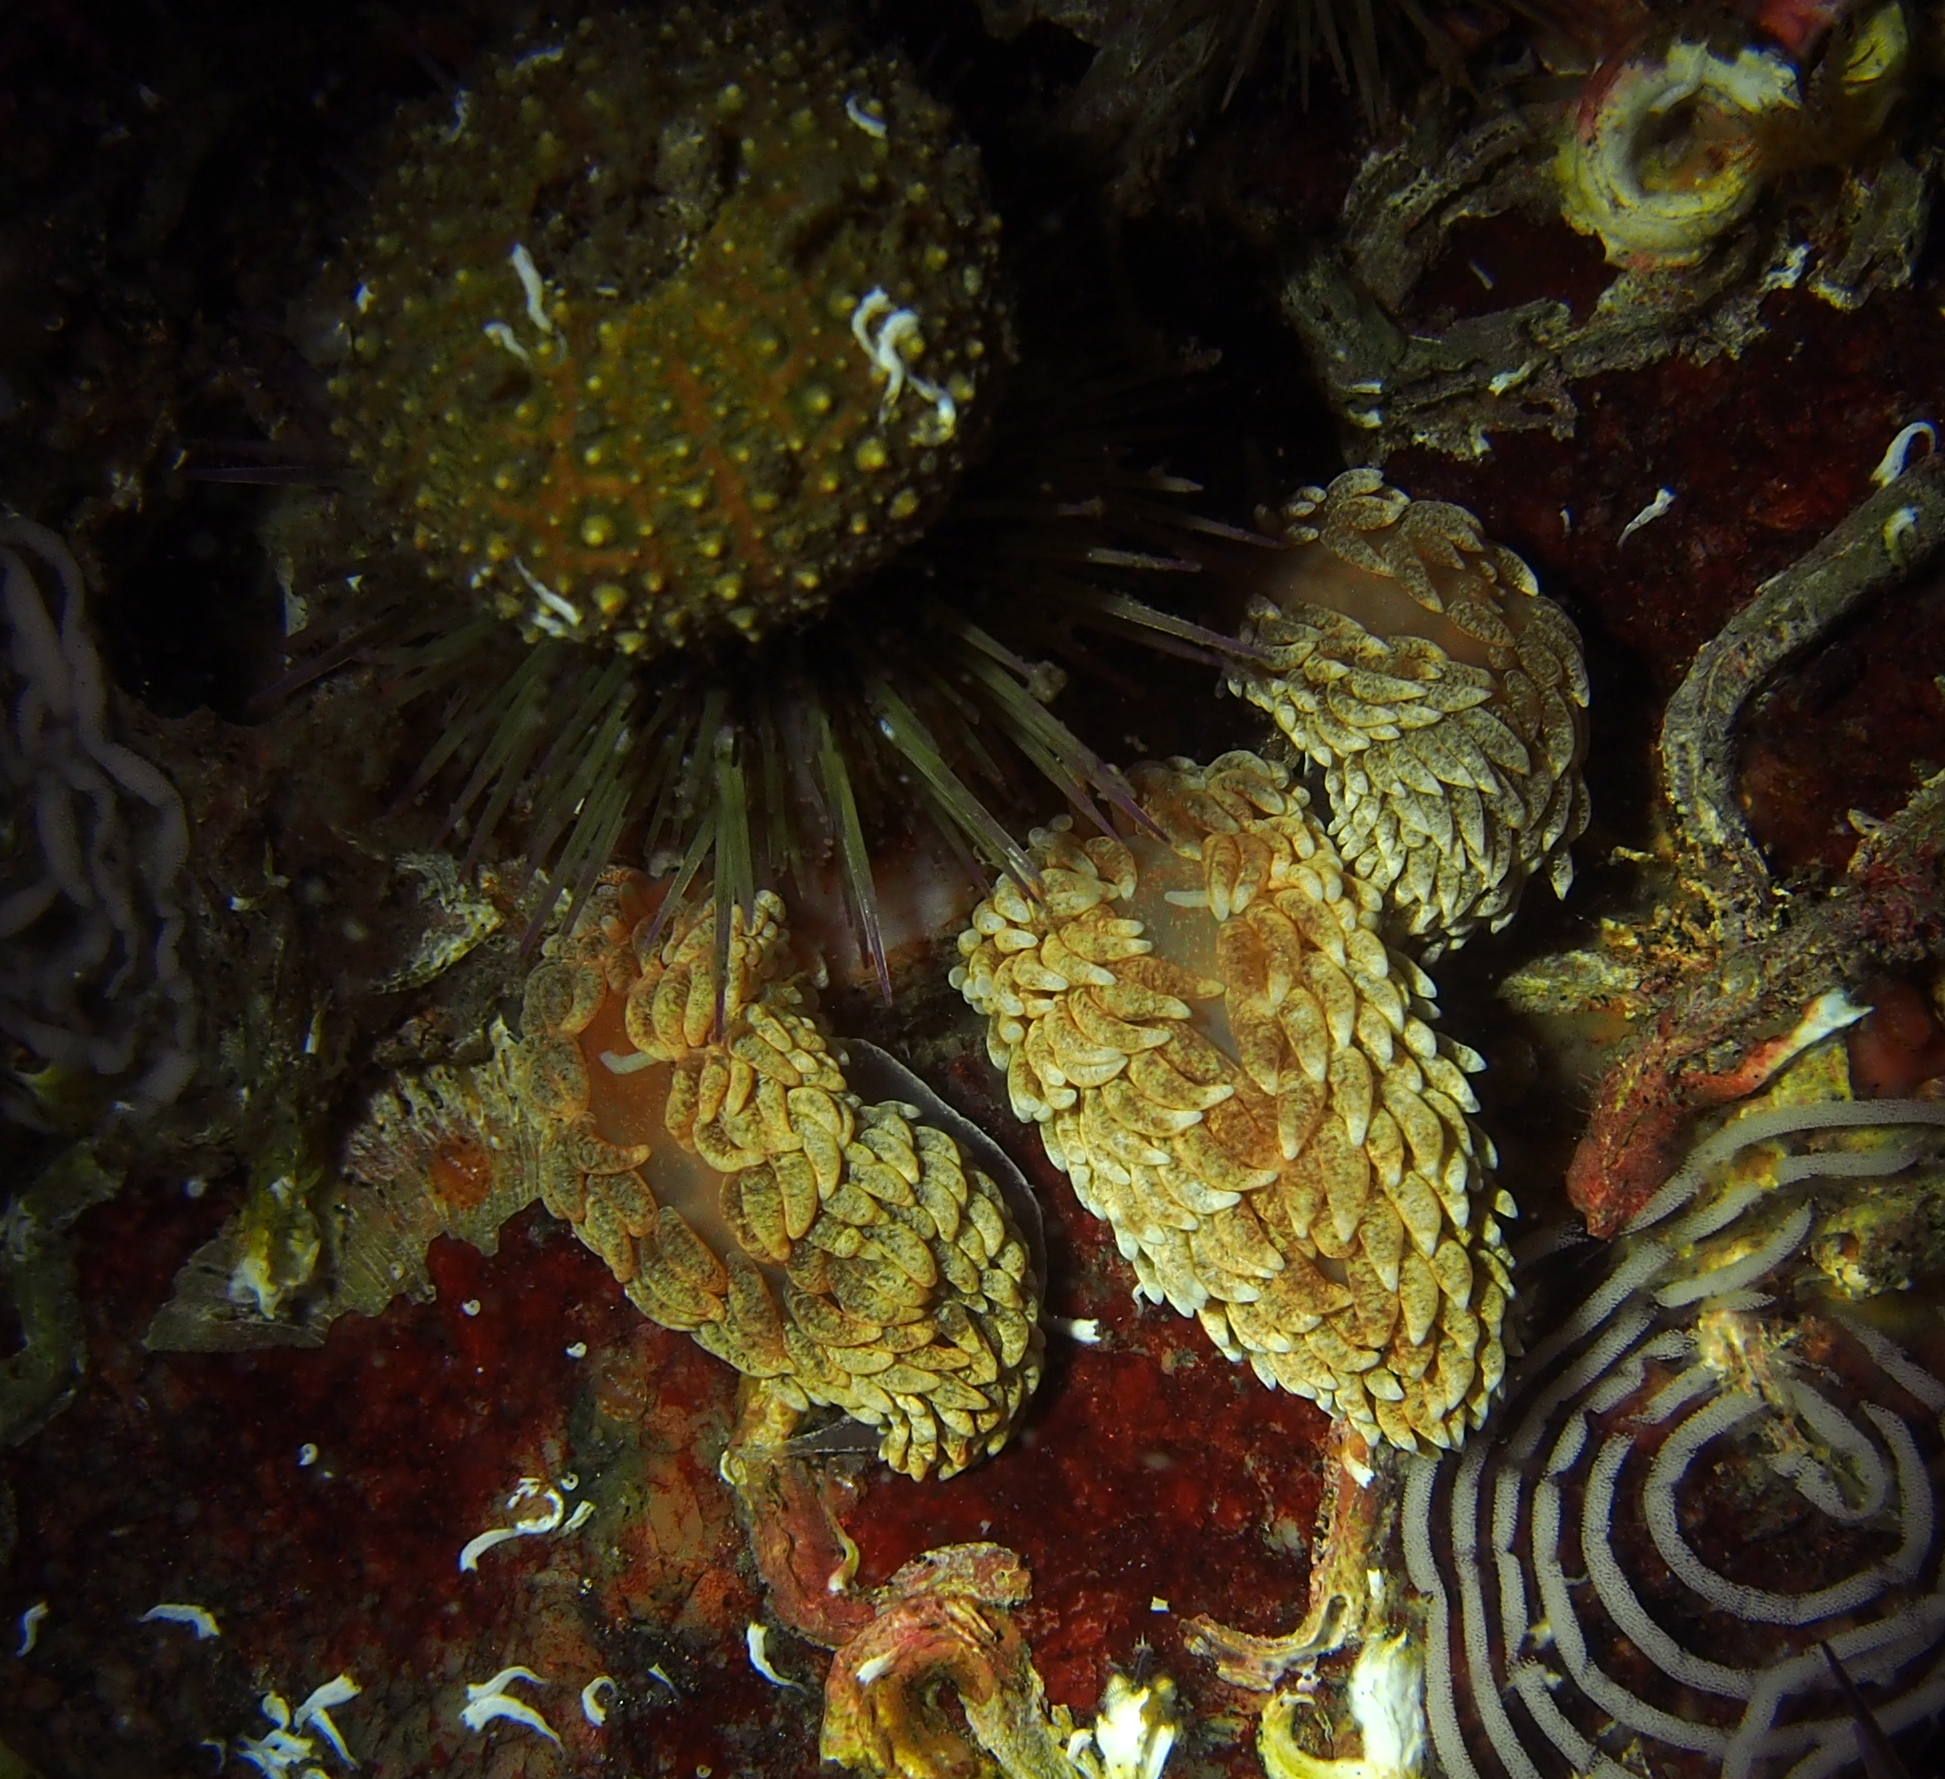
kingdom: Animalia
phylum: Mollusca
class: Gastropoda
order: Nudibranchia
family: Aeolidiidae
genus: Aeolidiella
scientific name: Aeolidiella glauca
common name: Orange-brown aeolid
